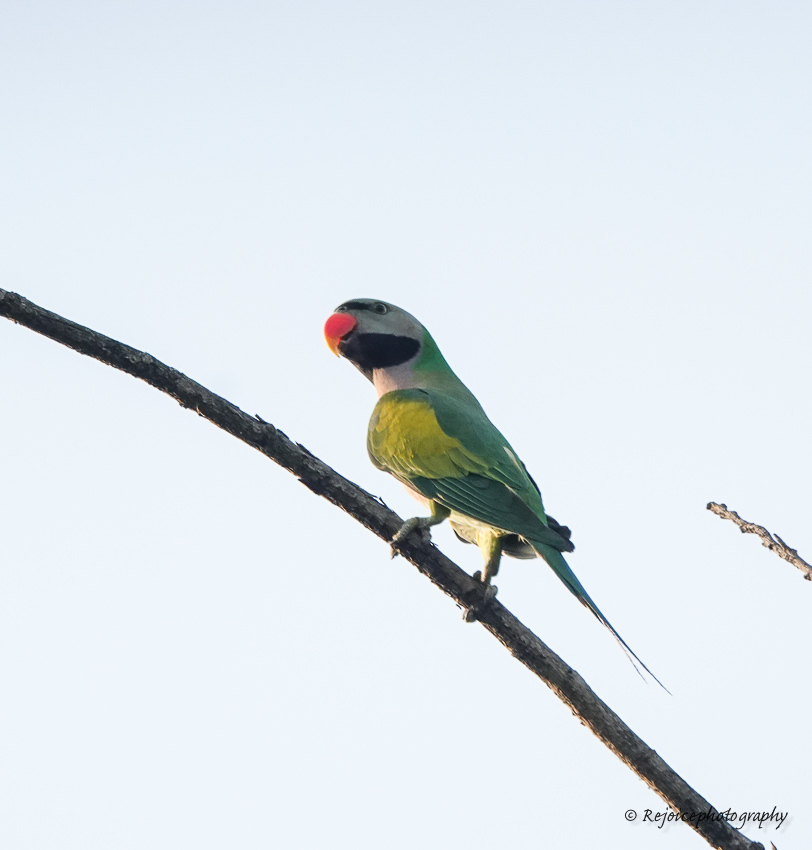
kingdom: Animalia
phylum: Chordata
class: Aves
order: Psittaciformes
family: Psittacidae
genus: Psittacula
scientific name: Psittacula alexandri
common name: Red-breasted parakeet
